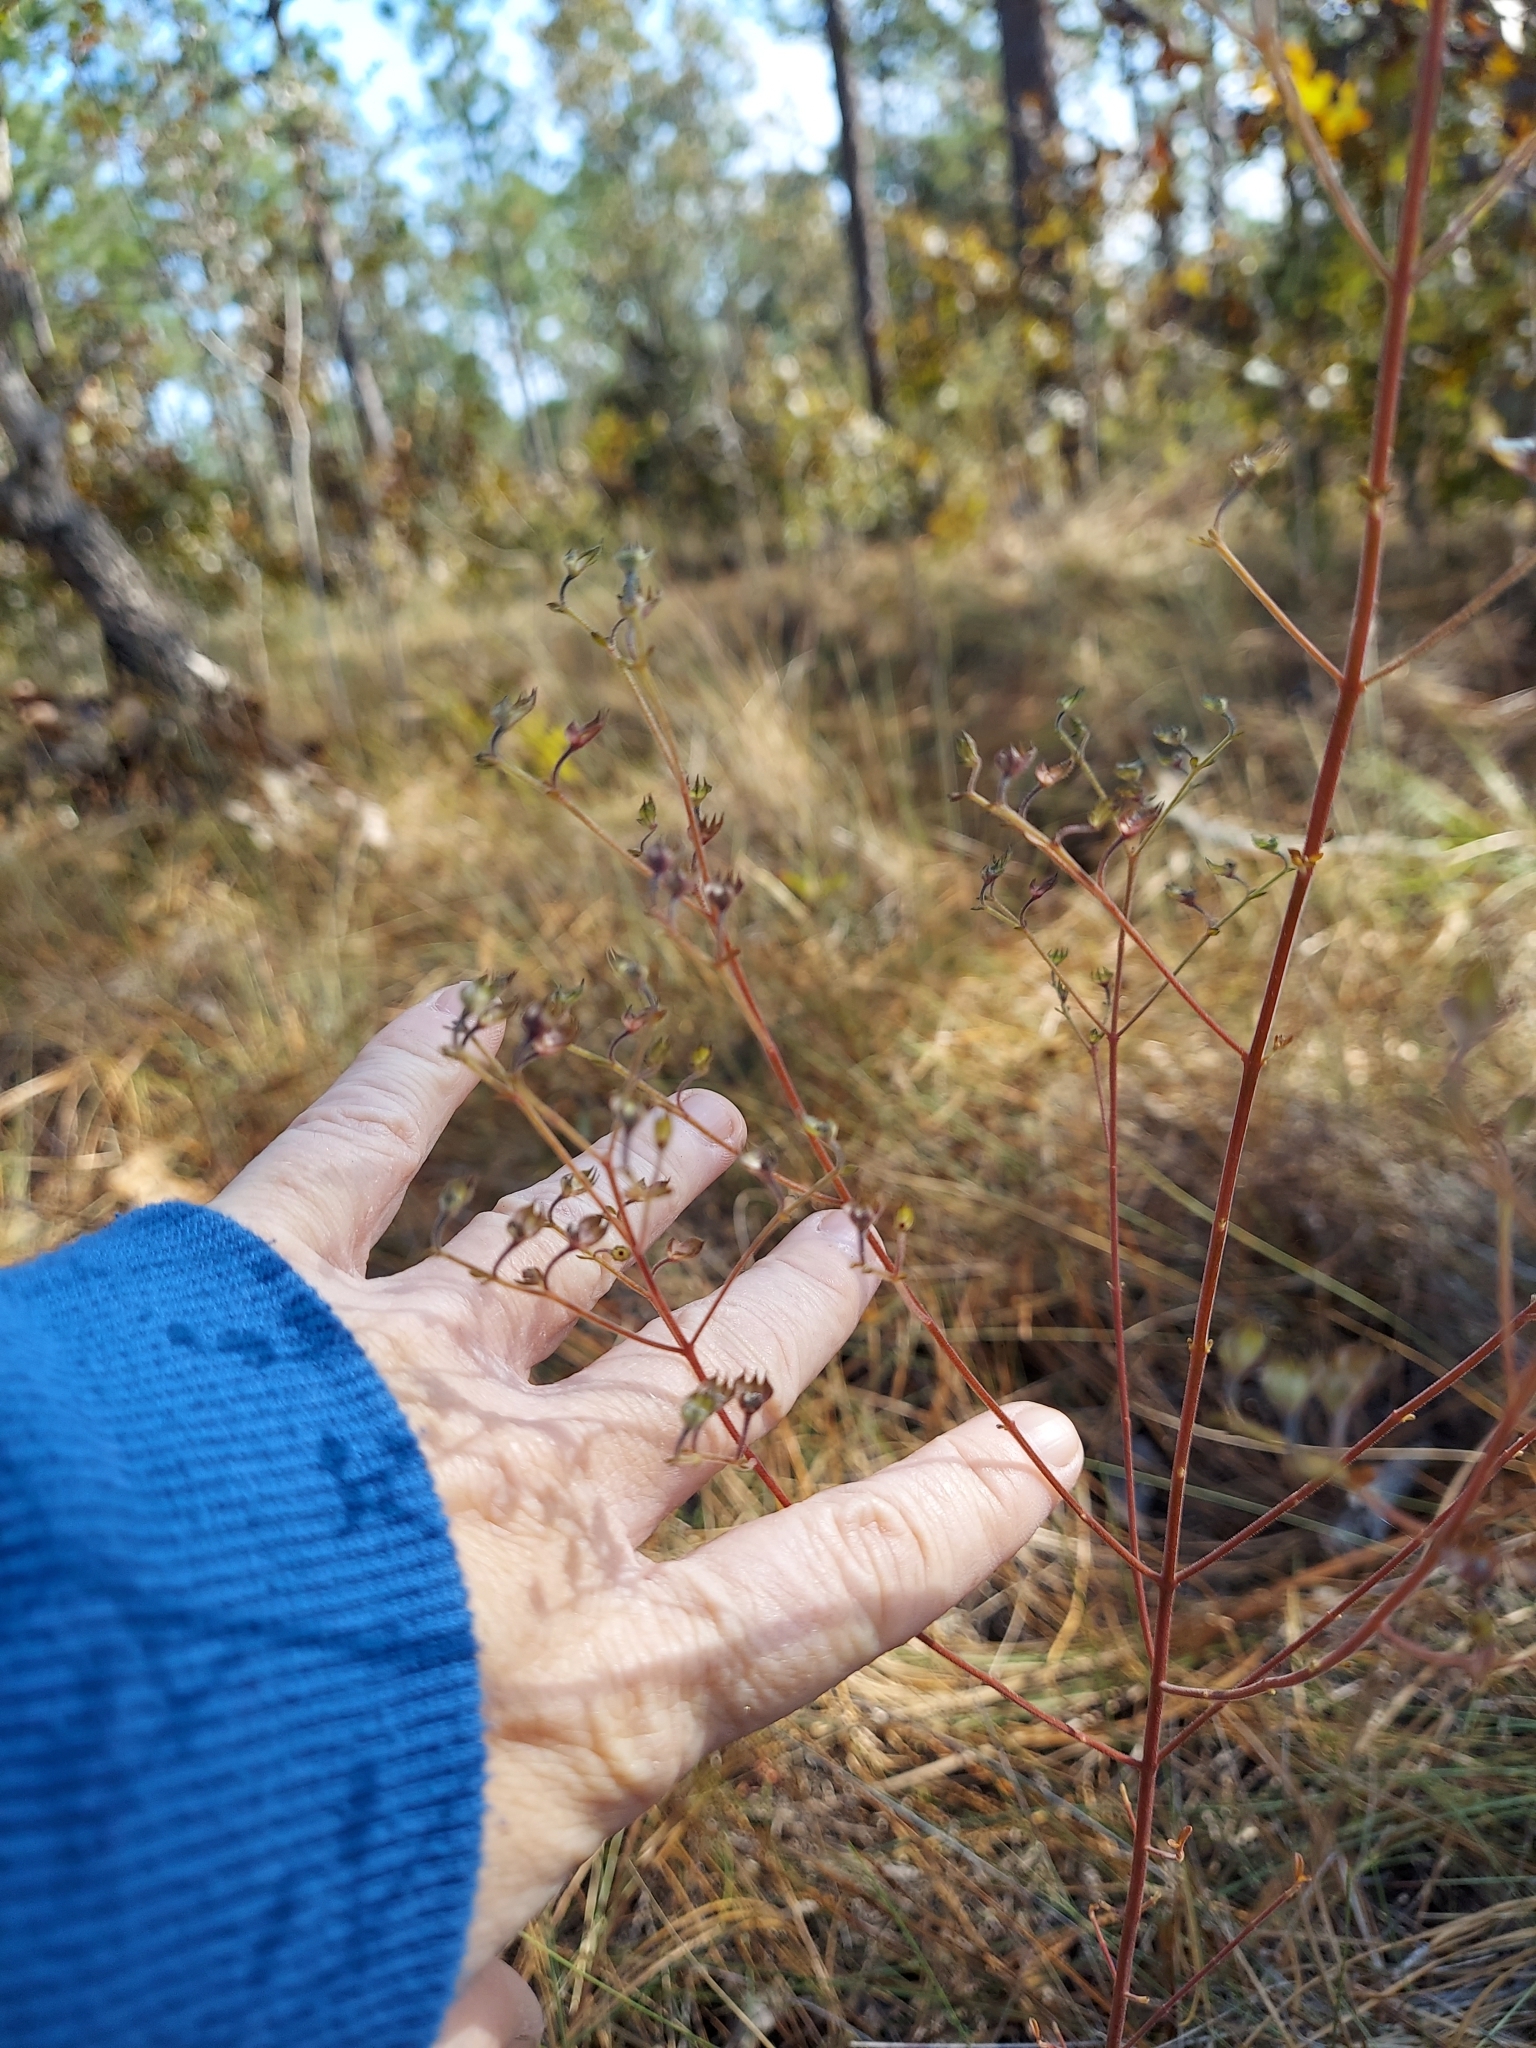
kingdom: Plantae
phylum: Tracheophyta
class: Magnoliopsida
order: Lamiales
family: Lamiaceae
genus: Trichostema
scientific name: Trichostema microphyllum
